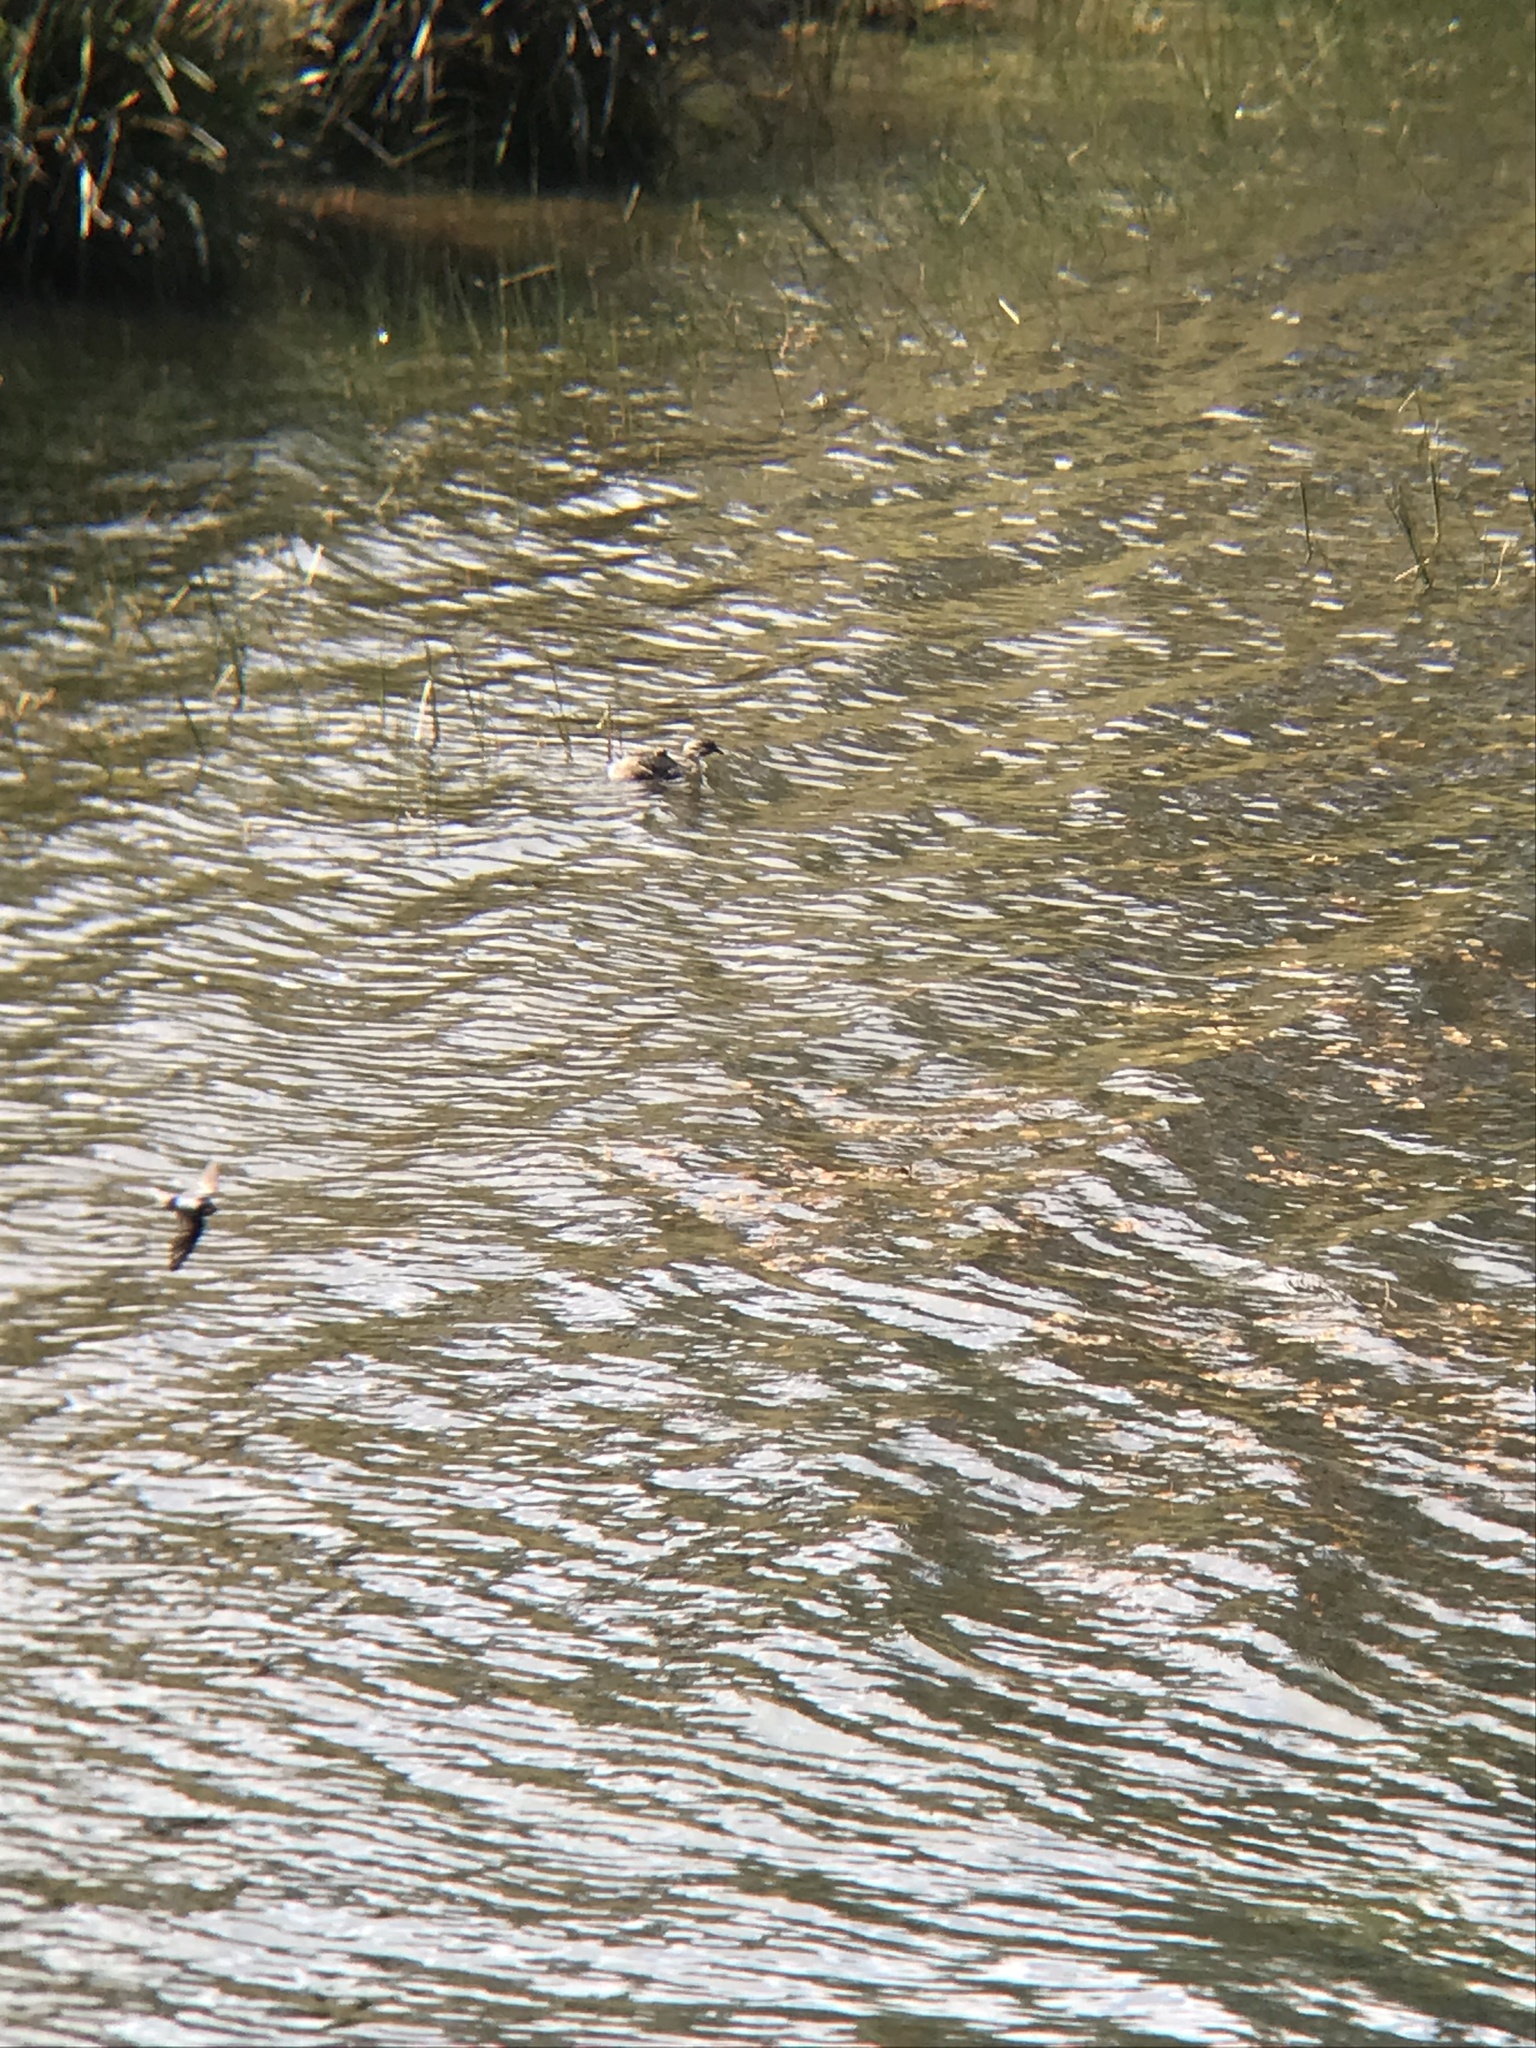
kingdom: Animalia
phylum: Chordata
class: Aves
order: Podicipediformes
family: Podicipedidae
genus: Poliocephalus
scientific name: Poliocephalus poliocephalus
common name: Hoary-headed grebe
